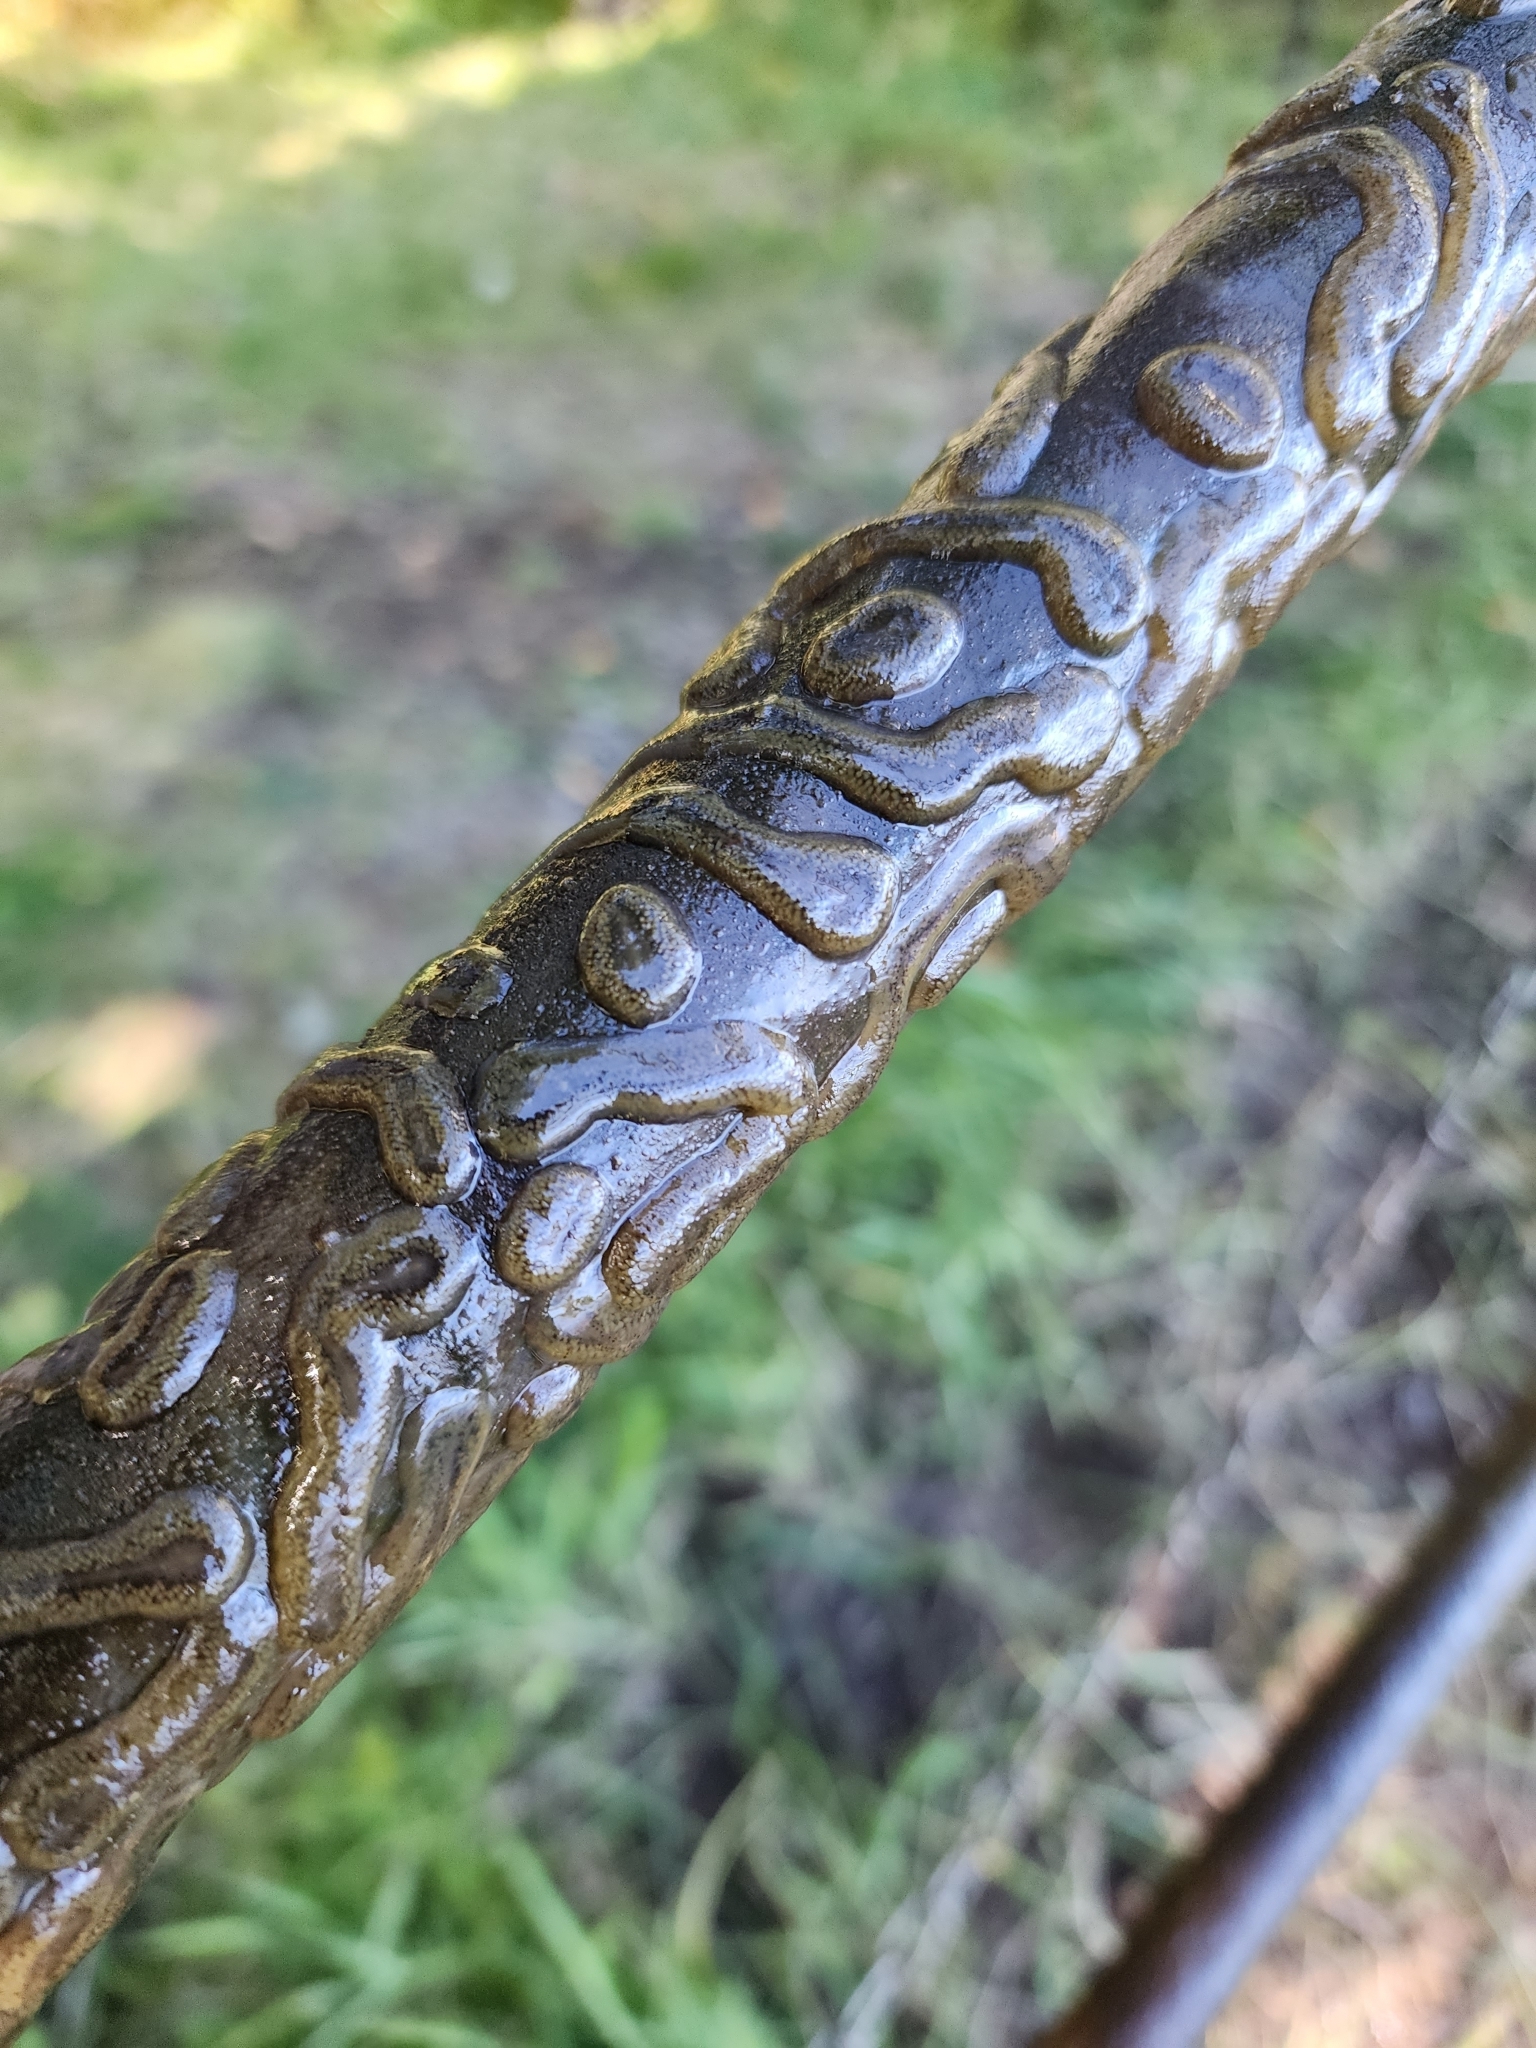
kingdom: Animalia
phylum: Bryozoa
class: Phylactolaemata
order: Plumatellida
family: Cristatellidae
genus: Cristatella
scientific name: Cristatella mucedo
